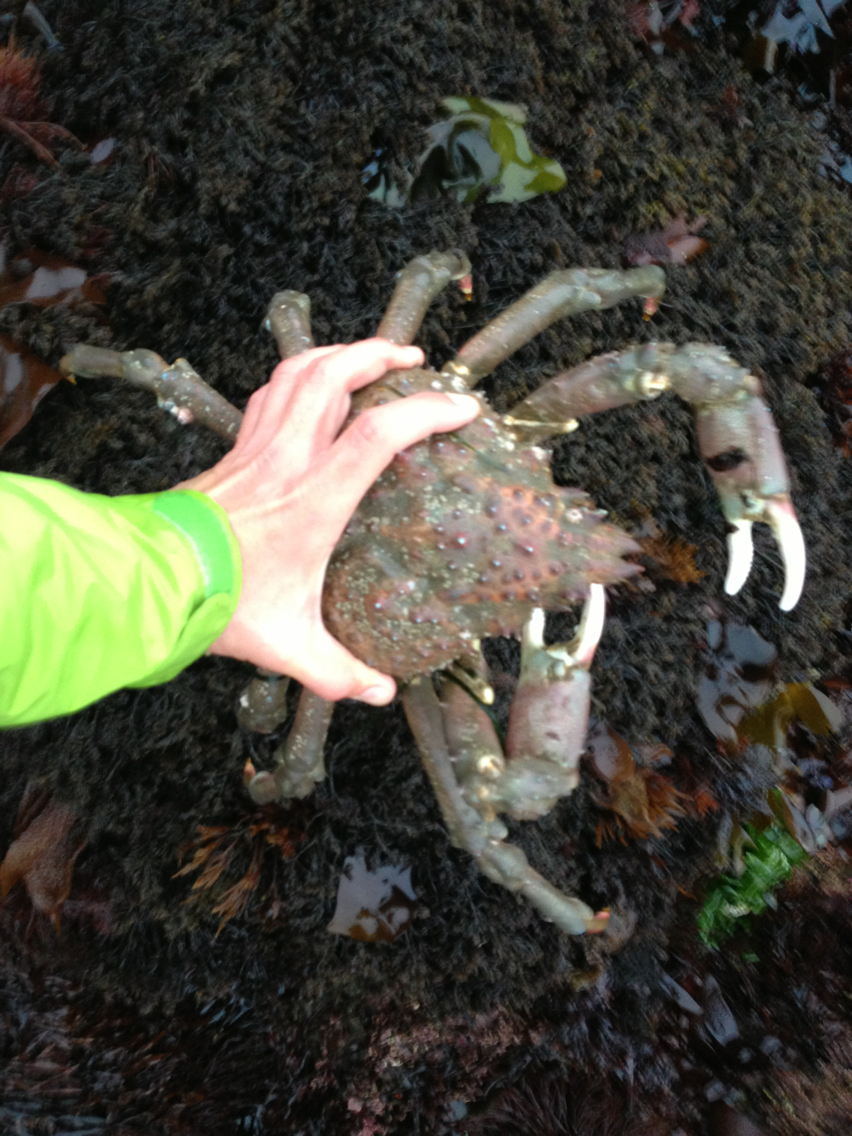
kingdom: Animalia
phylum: Arthropoda
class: Malacostraca
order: Decapoda
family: Epialtidae
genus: Loxorhynchus
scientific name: Loxorhynchus grandis
